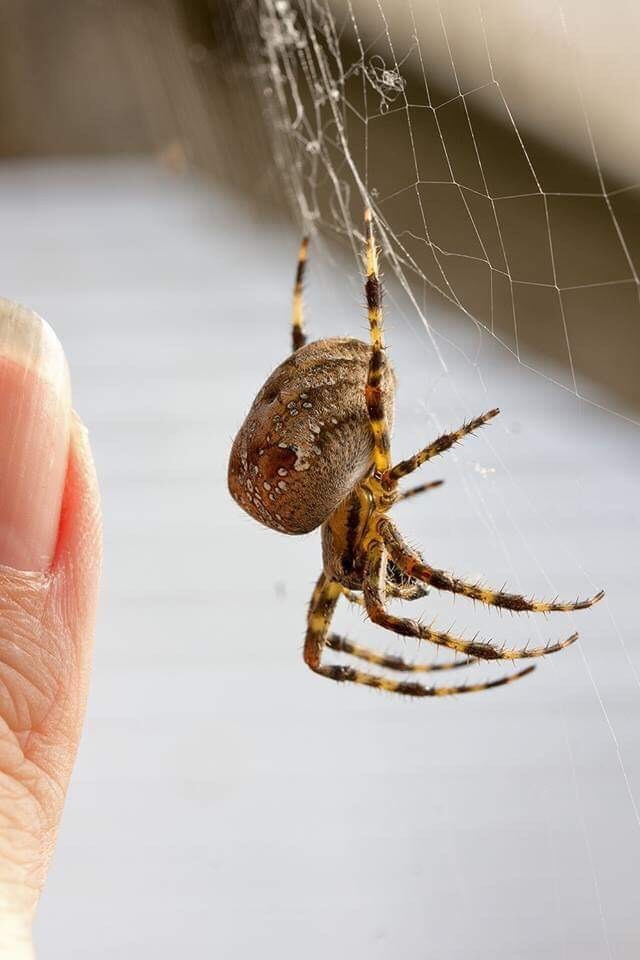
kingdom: Animalia
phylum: Arthropoda
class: Arachnida
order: Araneae
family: Araneidae
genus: Araneus
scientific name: Araneus diadematus
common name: Cross orbweaver
